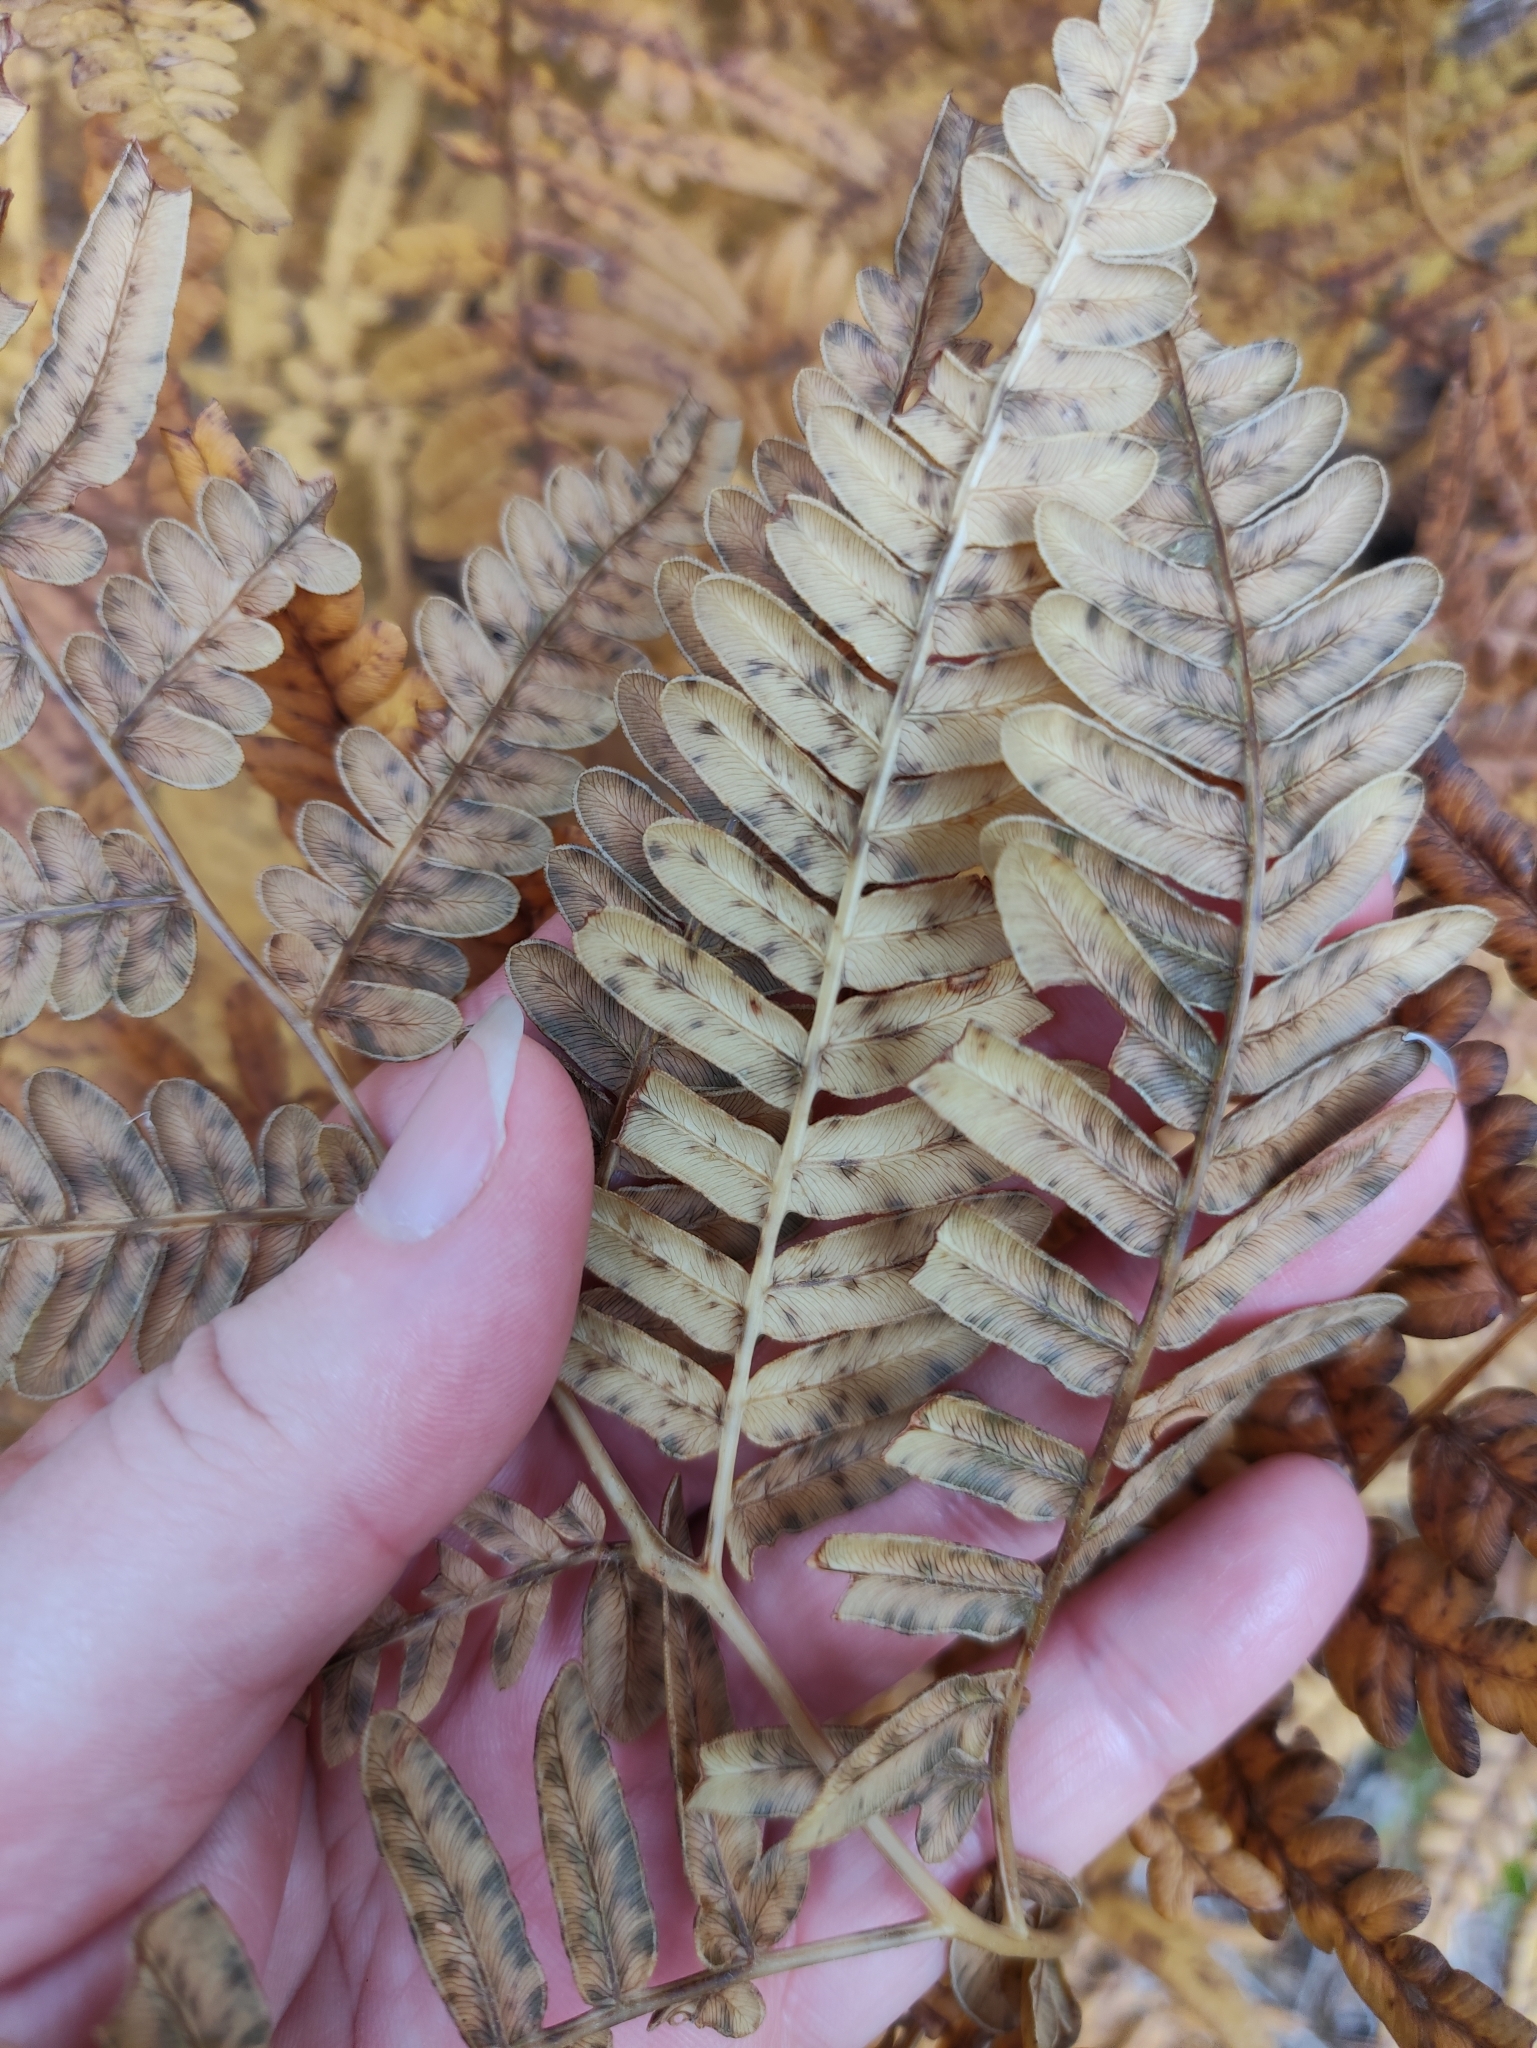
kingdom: Plantae
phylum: Tracheophyta
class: Polypodiopsida
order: Polypodiales
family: Dennstaedtiaceae
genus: Pteridium
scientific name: Pteridium aquilinum
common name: Bracken
